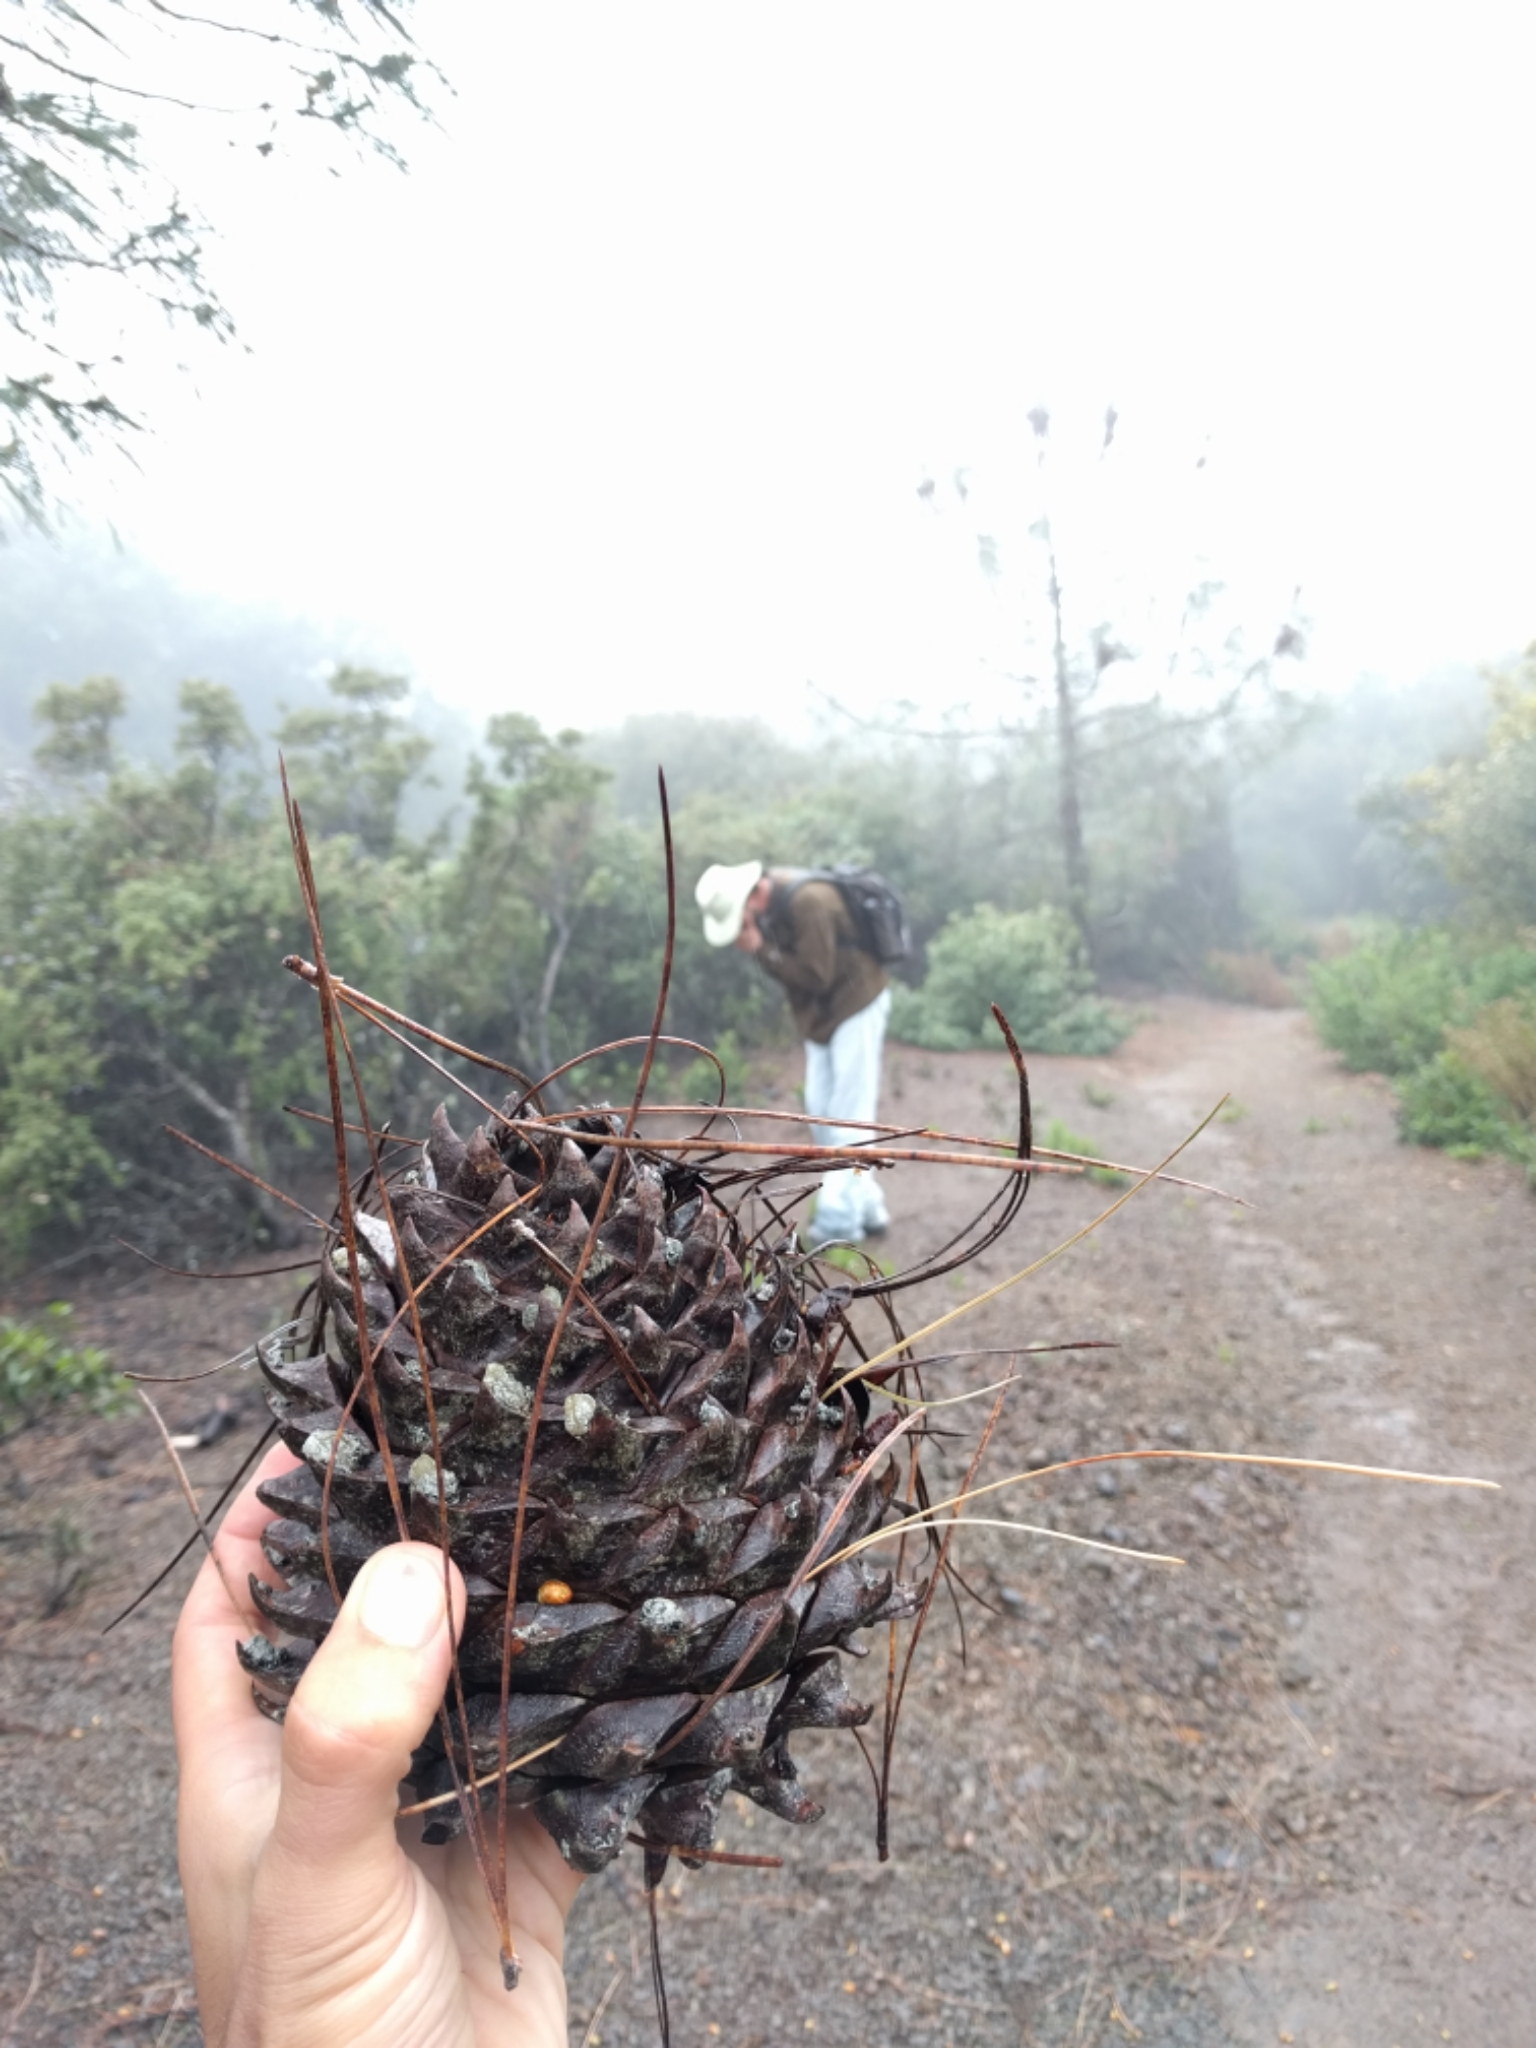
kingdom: Plantae
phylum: Tracheophyta
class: Pinopsida
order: Pinales
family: Pinaceae
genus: Pinus
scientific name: Pinus sabiniana
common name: Bull pine
